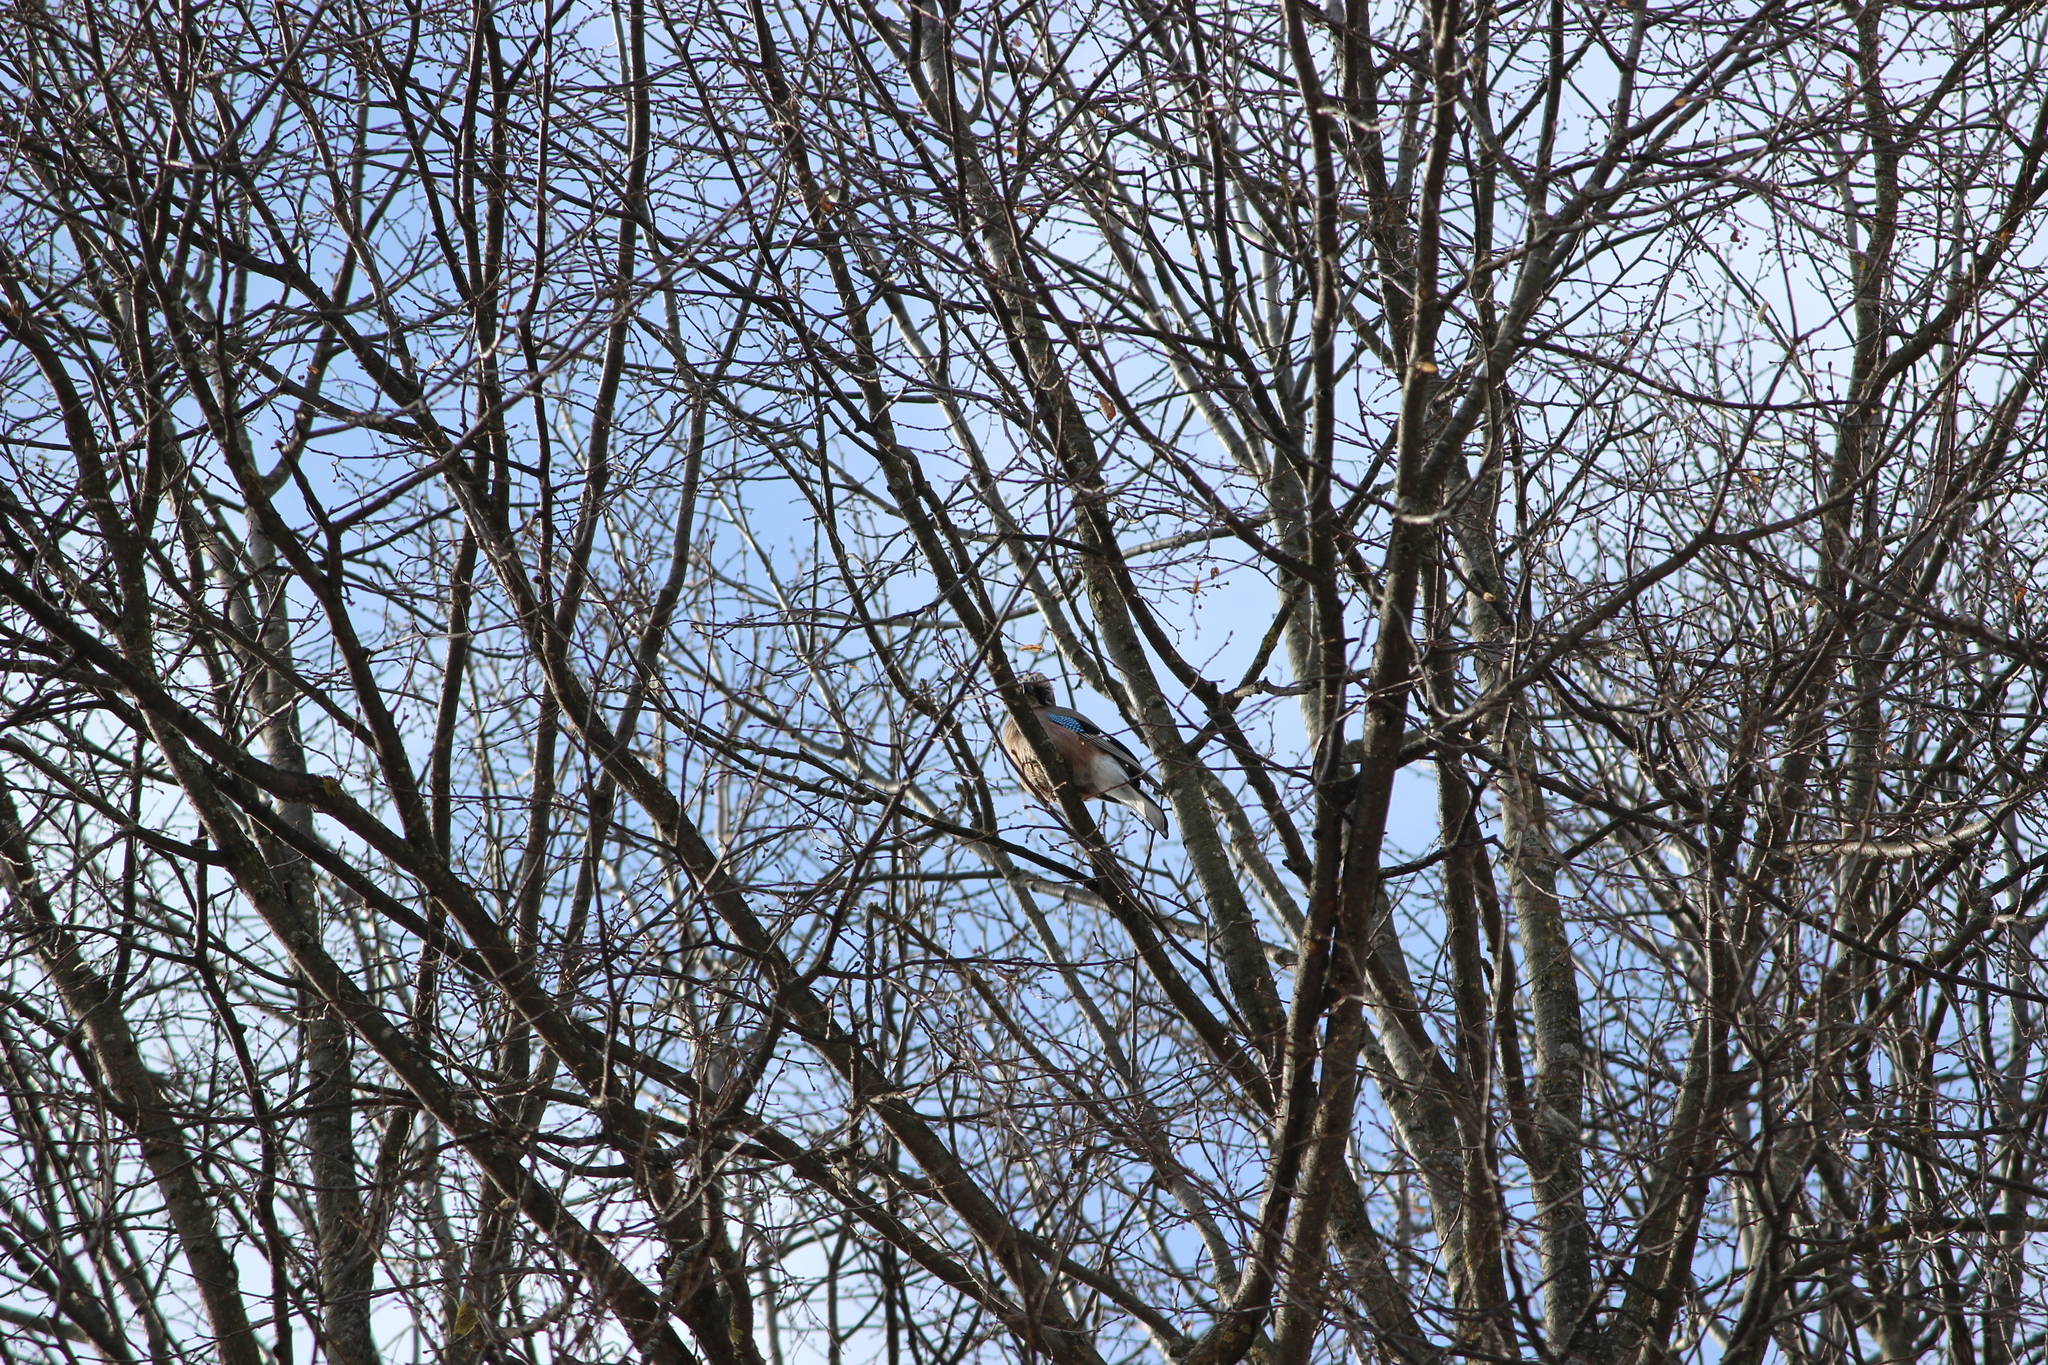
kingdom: Animalia
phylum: Chordata
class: Aves
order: Passeriformes
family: Corvidae
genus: Garrulus
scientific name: Garrulus glandarius
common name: Eurasian jay
